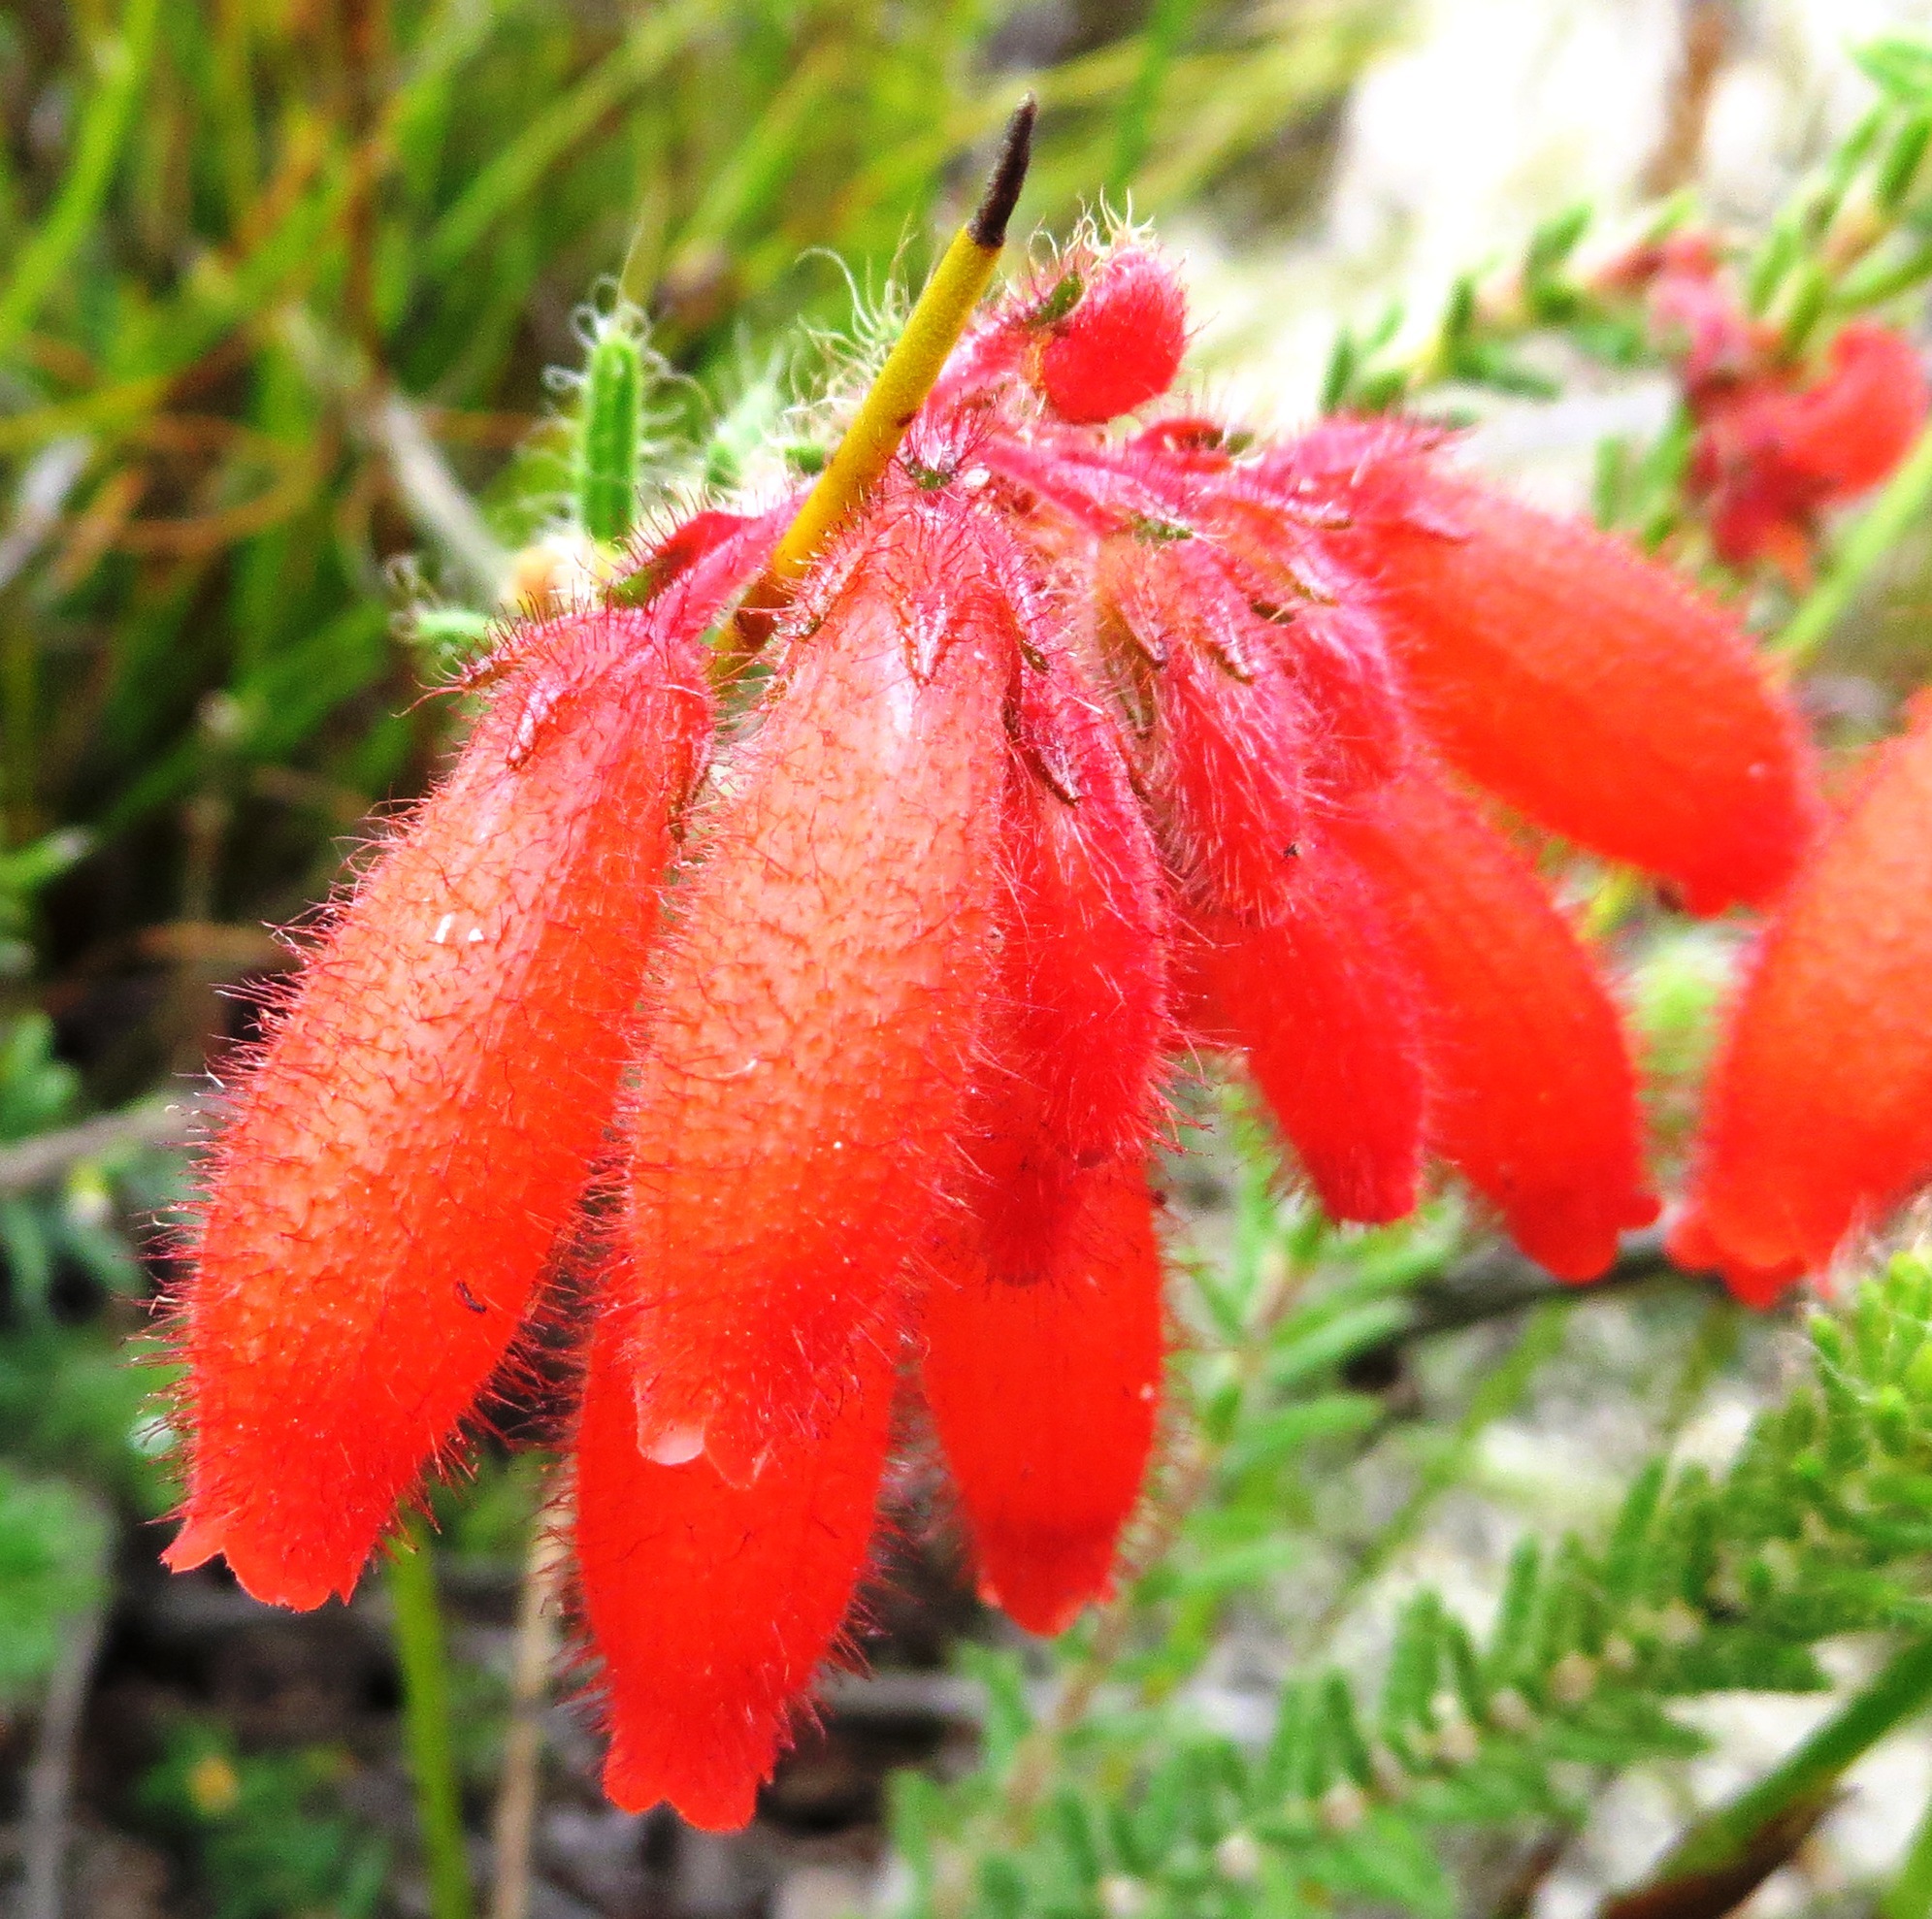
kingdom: Plantae
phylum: Tracheophyta
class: Magnoliopsida
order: Ericales
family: Ericaceae
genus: Erica
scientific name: Erica cerinthoides
